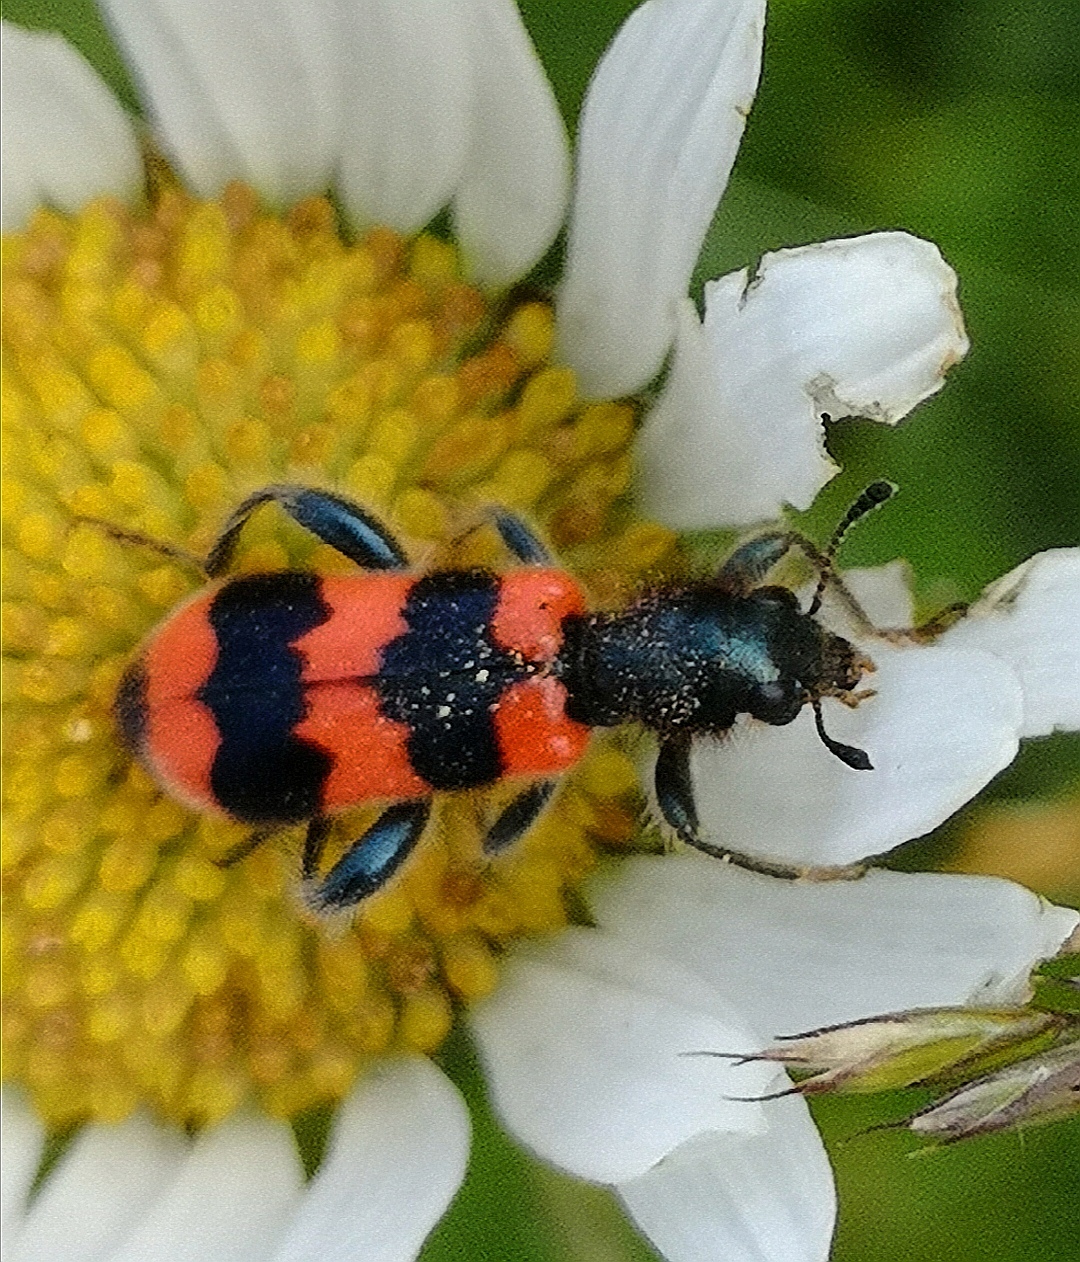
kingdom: Animalia
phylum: Arthropoda
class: Insecta
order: Coleoptera
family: Cleridae
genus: Trichodes
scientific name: Trichodes apiarius
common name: Bee-eating beetle
